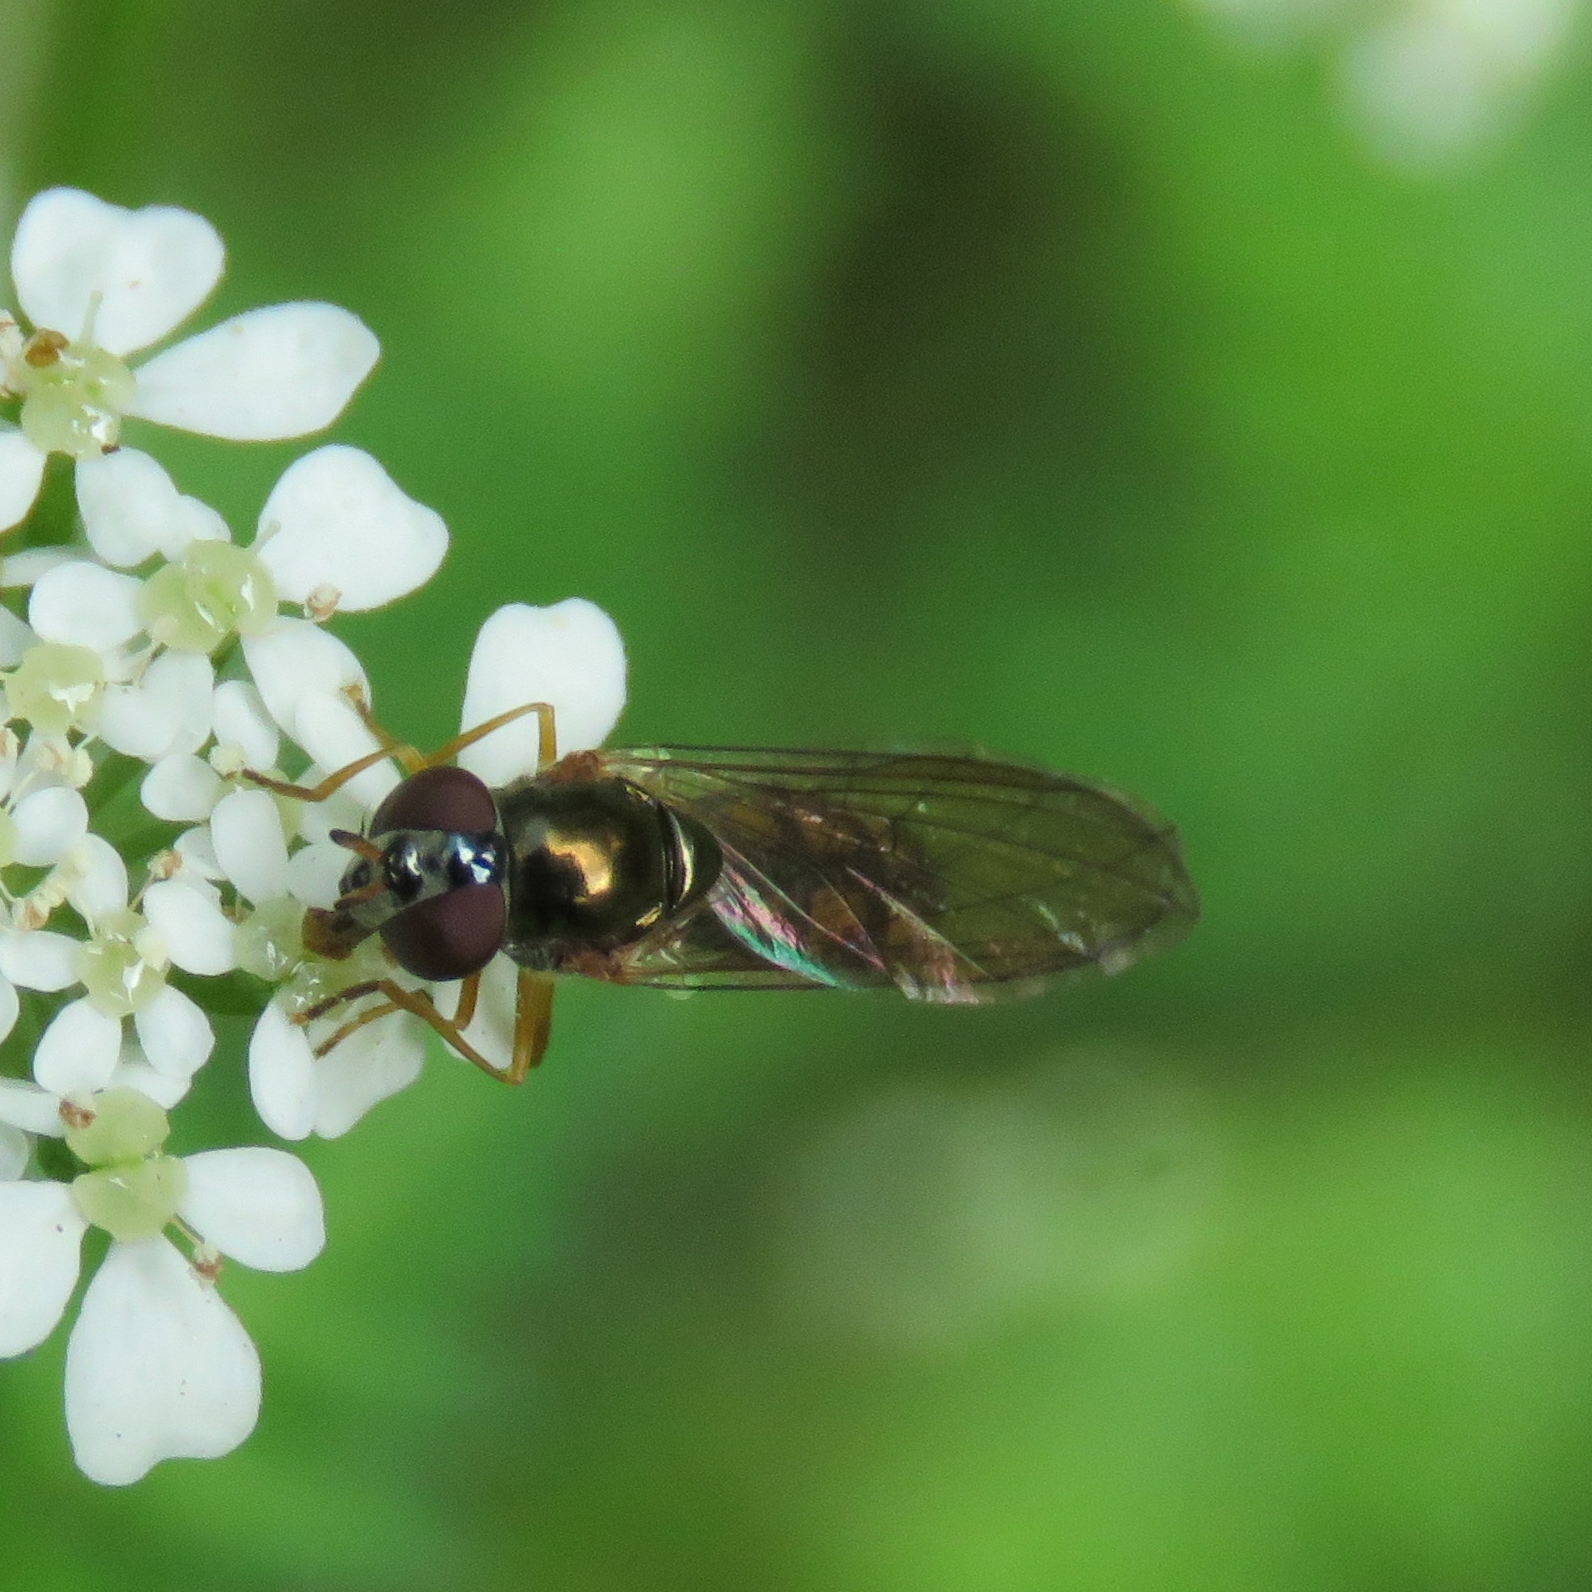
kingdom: Animalia
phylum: Arthropoda
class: Insecta
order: Diptera
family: Syrphidae
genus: Melanostoma
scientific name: Melanostoma scalare
